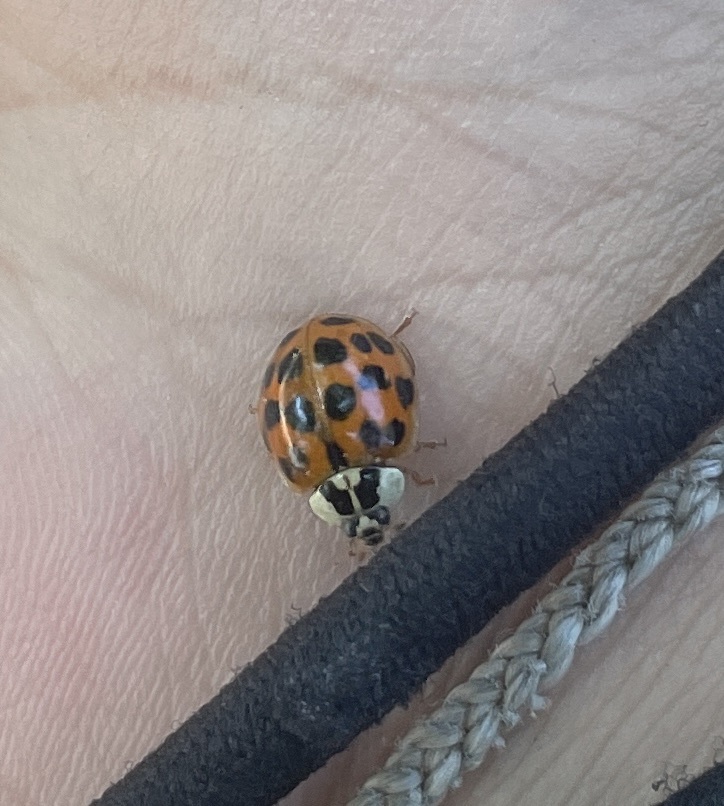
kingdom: Animalia
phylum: Arthropoda
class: Insecta
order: Coleoptera
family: Coccinellidae
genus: Harmonia
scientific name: Harmonia axyridis
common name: Harlequin ladybird
